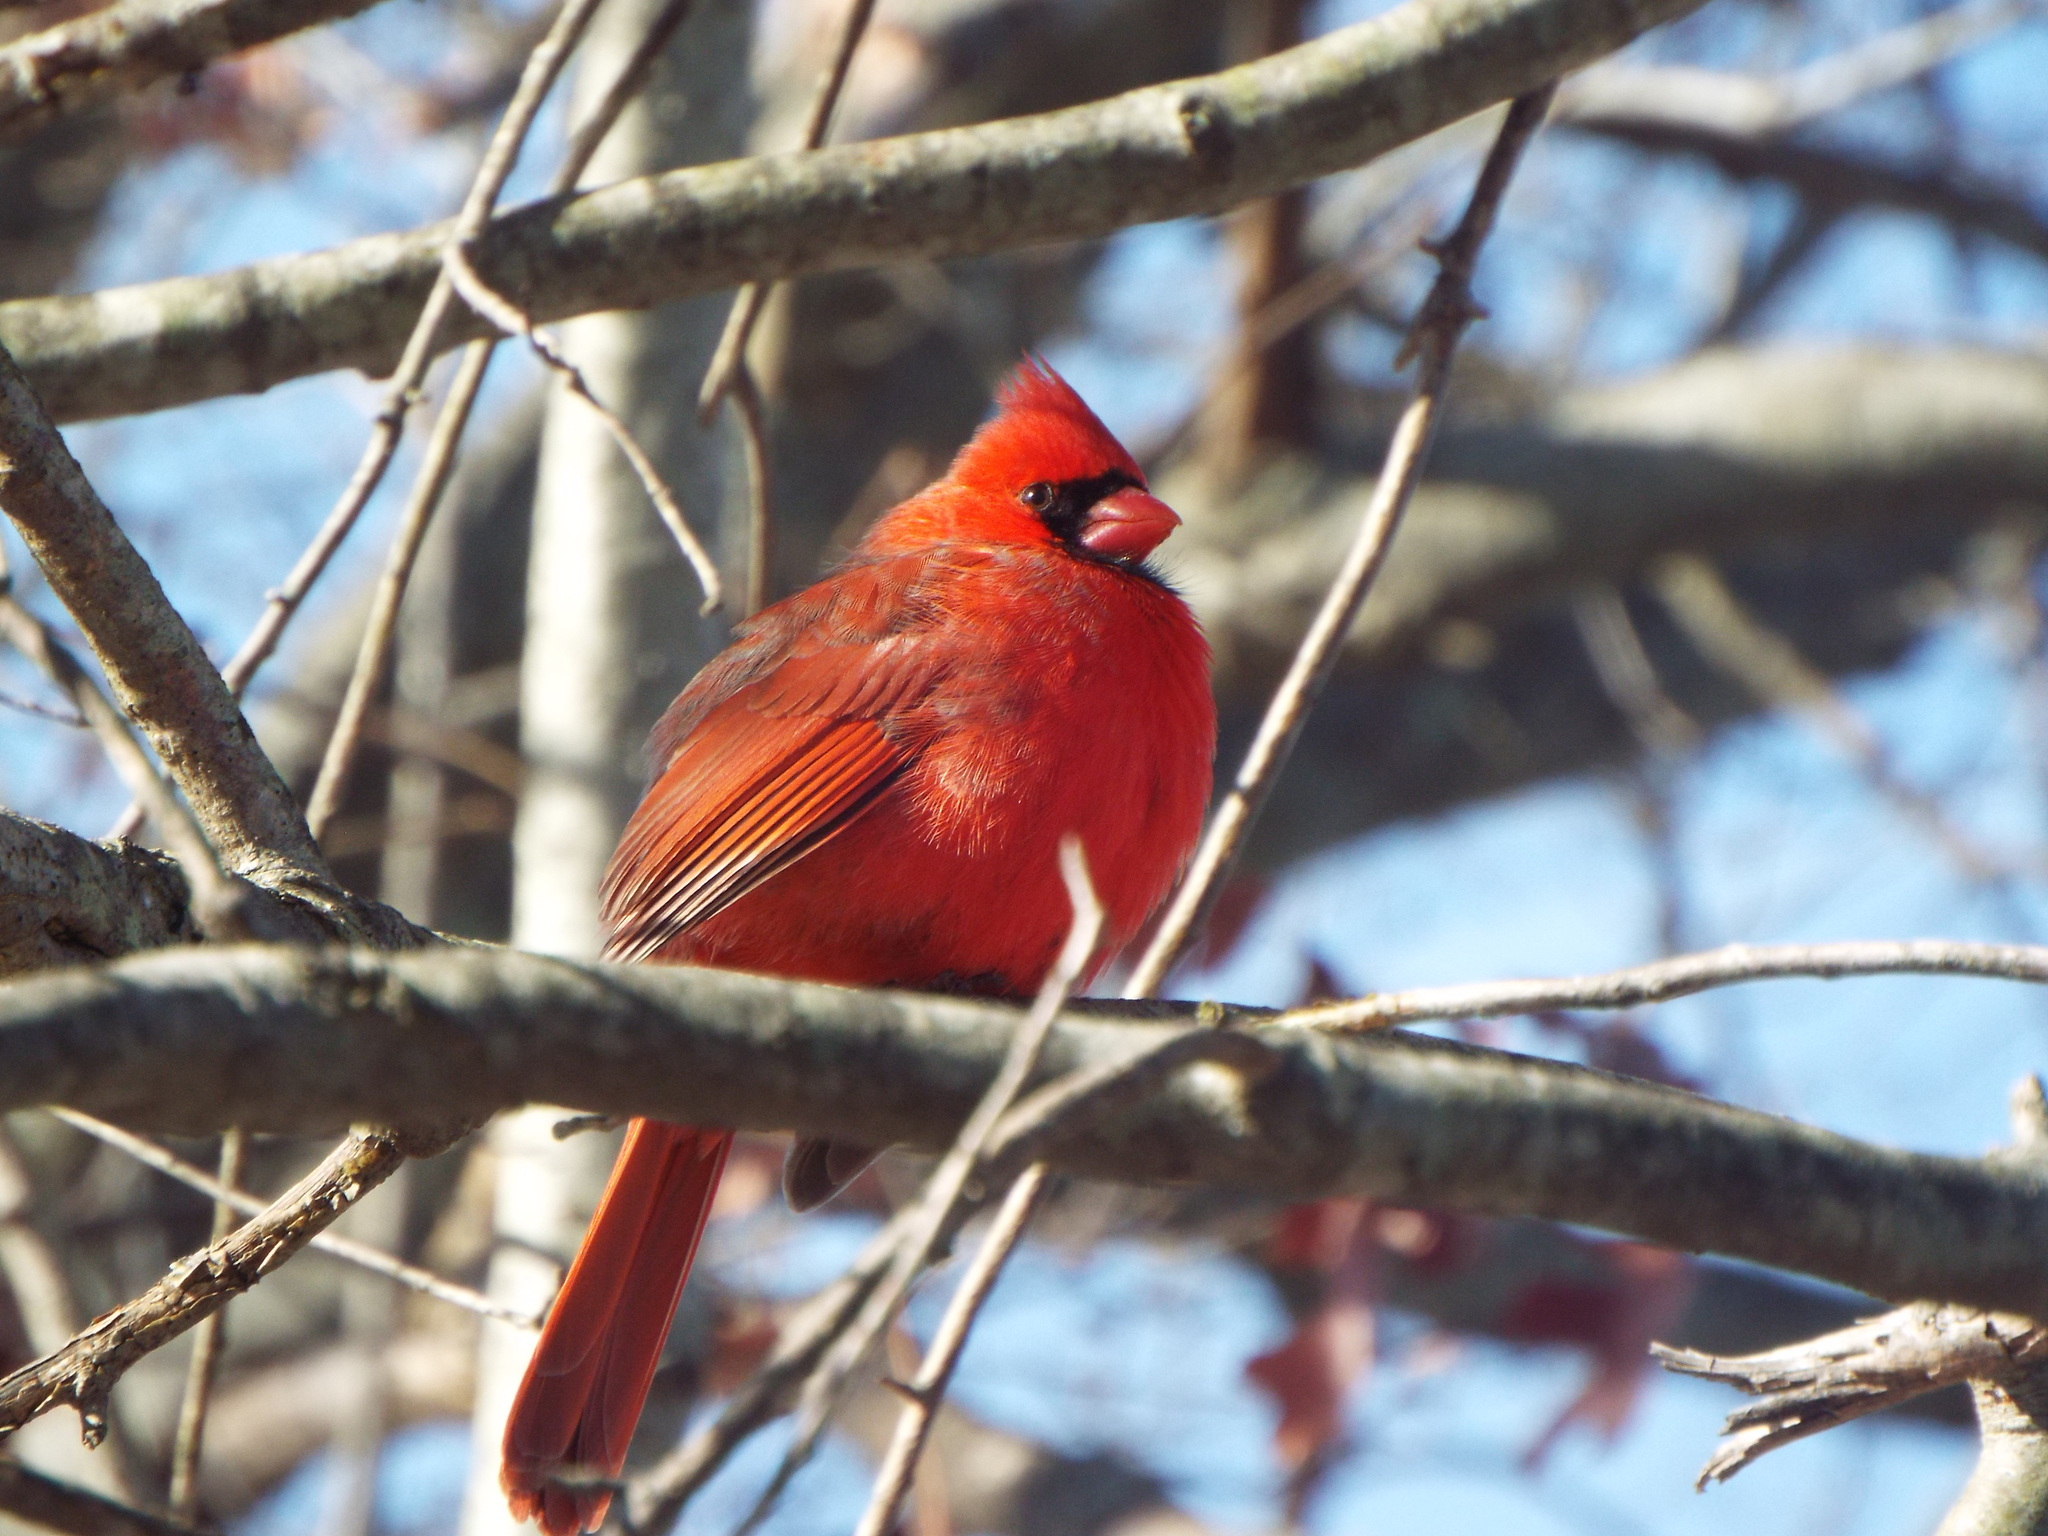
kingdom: Animalia
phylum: Chordata
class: Aves
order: Passeriformes
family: Cardinalidae
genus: Cardinalis
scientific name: Cardinalis cardinalis
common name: Northern cardinal
